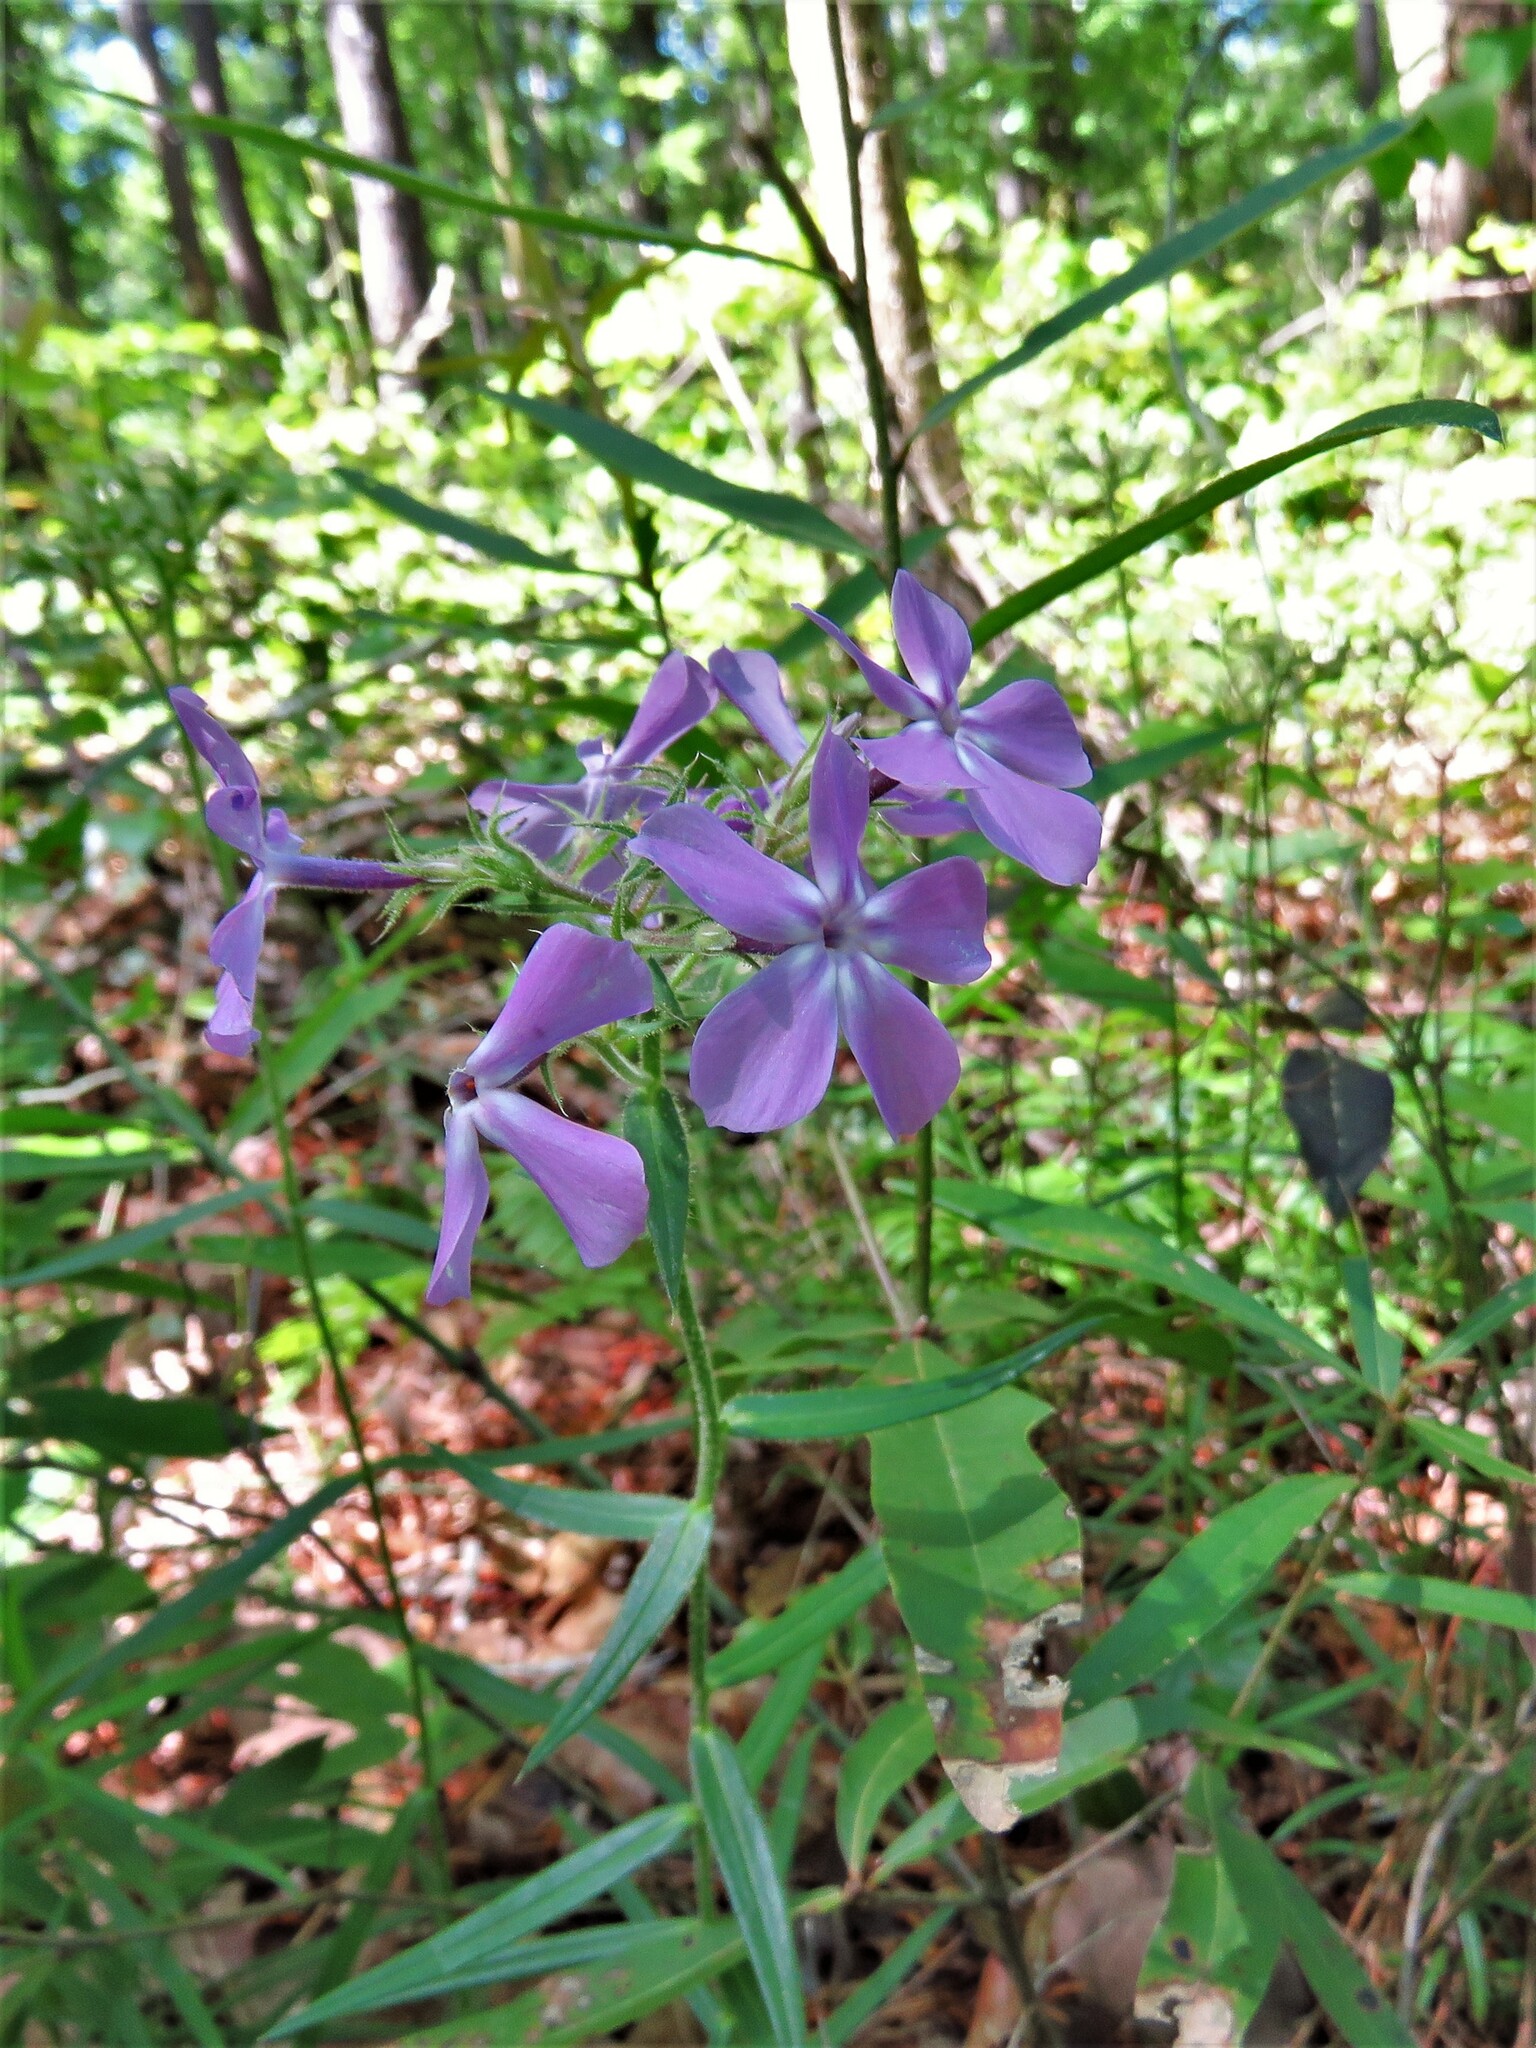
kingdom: Plantae
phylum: Tracheophyta
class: Magnoliopsida
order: Ericales
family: Polemoniaceae
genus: Phlox
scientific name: Phlox pilosa
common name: Prairie phlox
